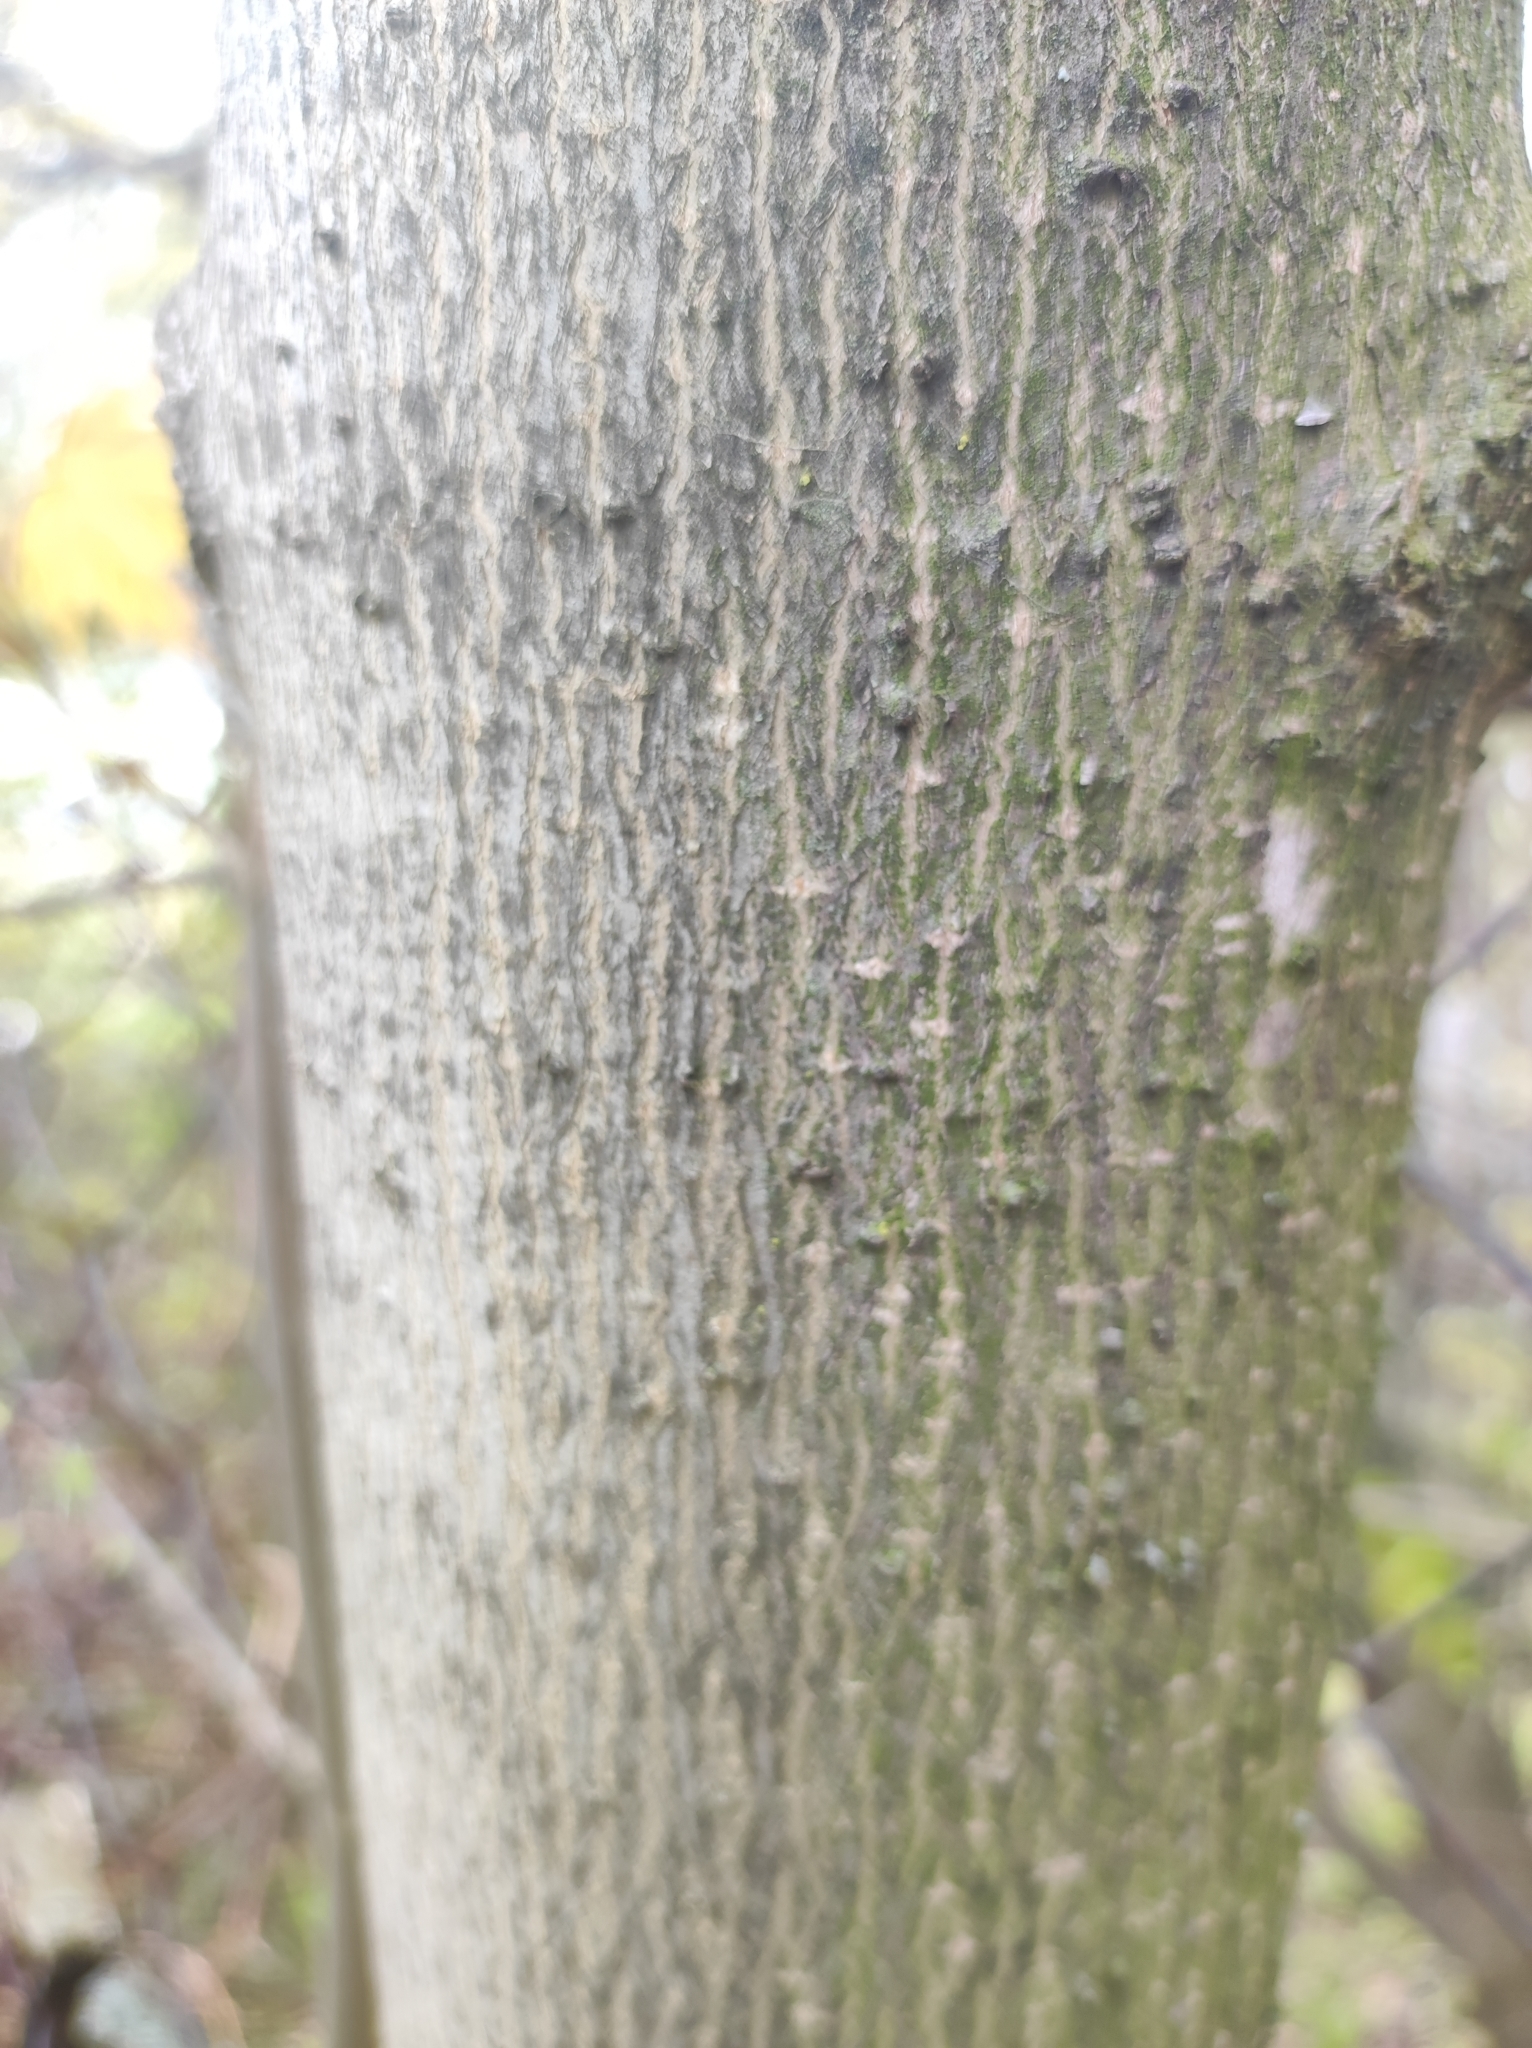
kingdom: Plantae
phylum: Tracheophyta
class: Magnoliopsida
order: Sapindales
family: Sapindaceae
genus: Acer
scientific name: Acer platanoides
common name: Norway maple
